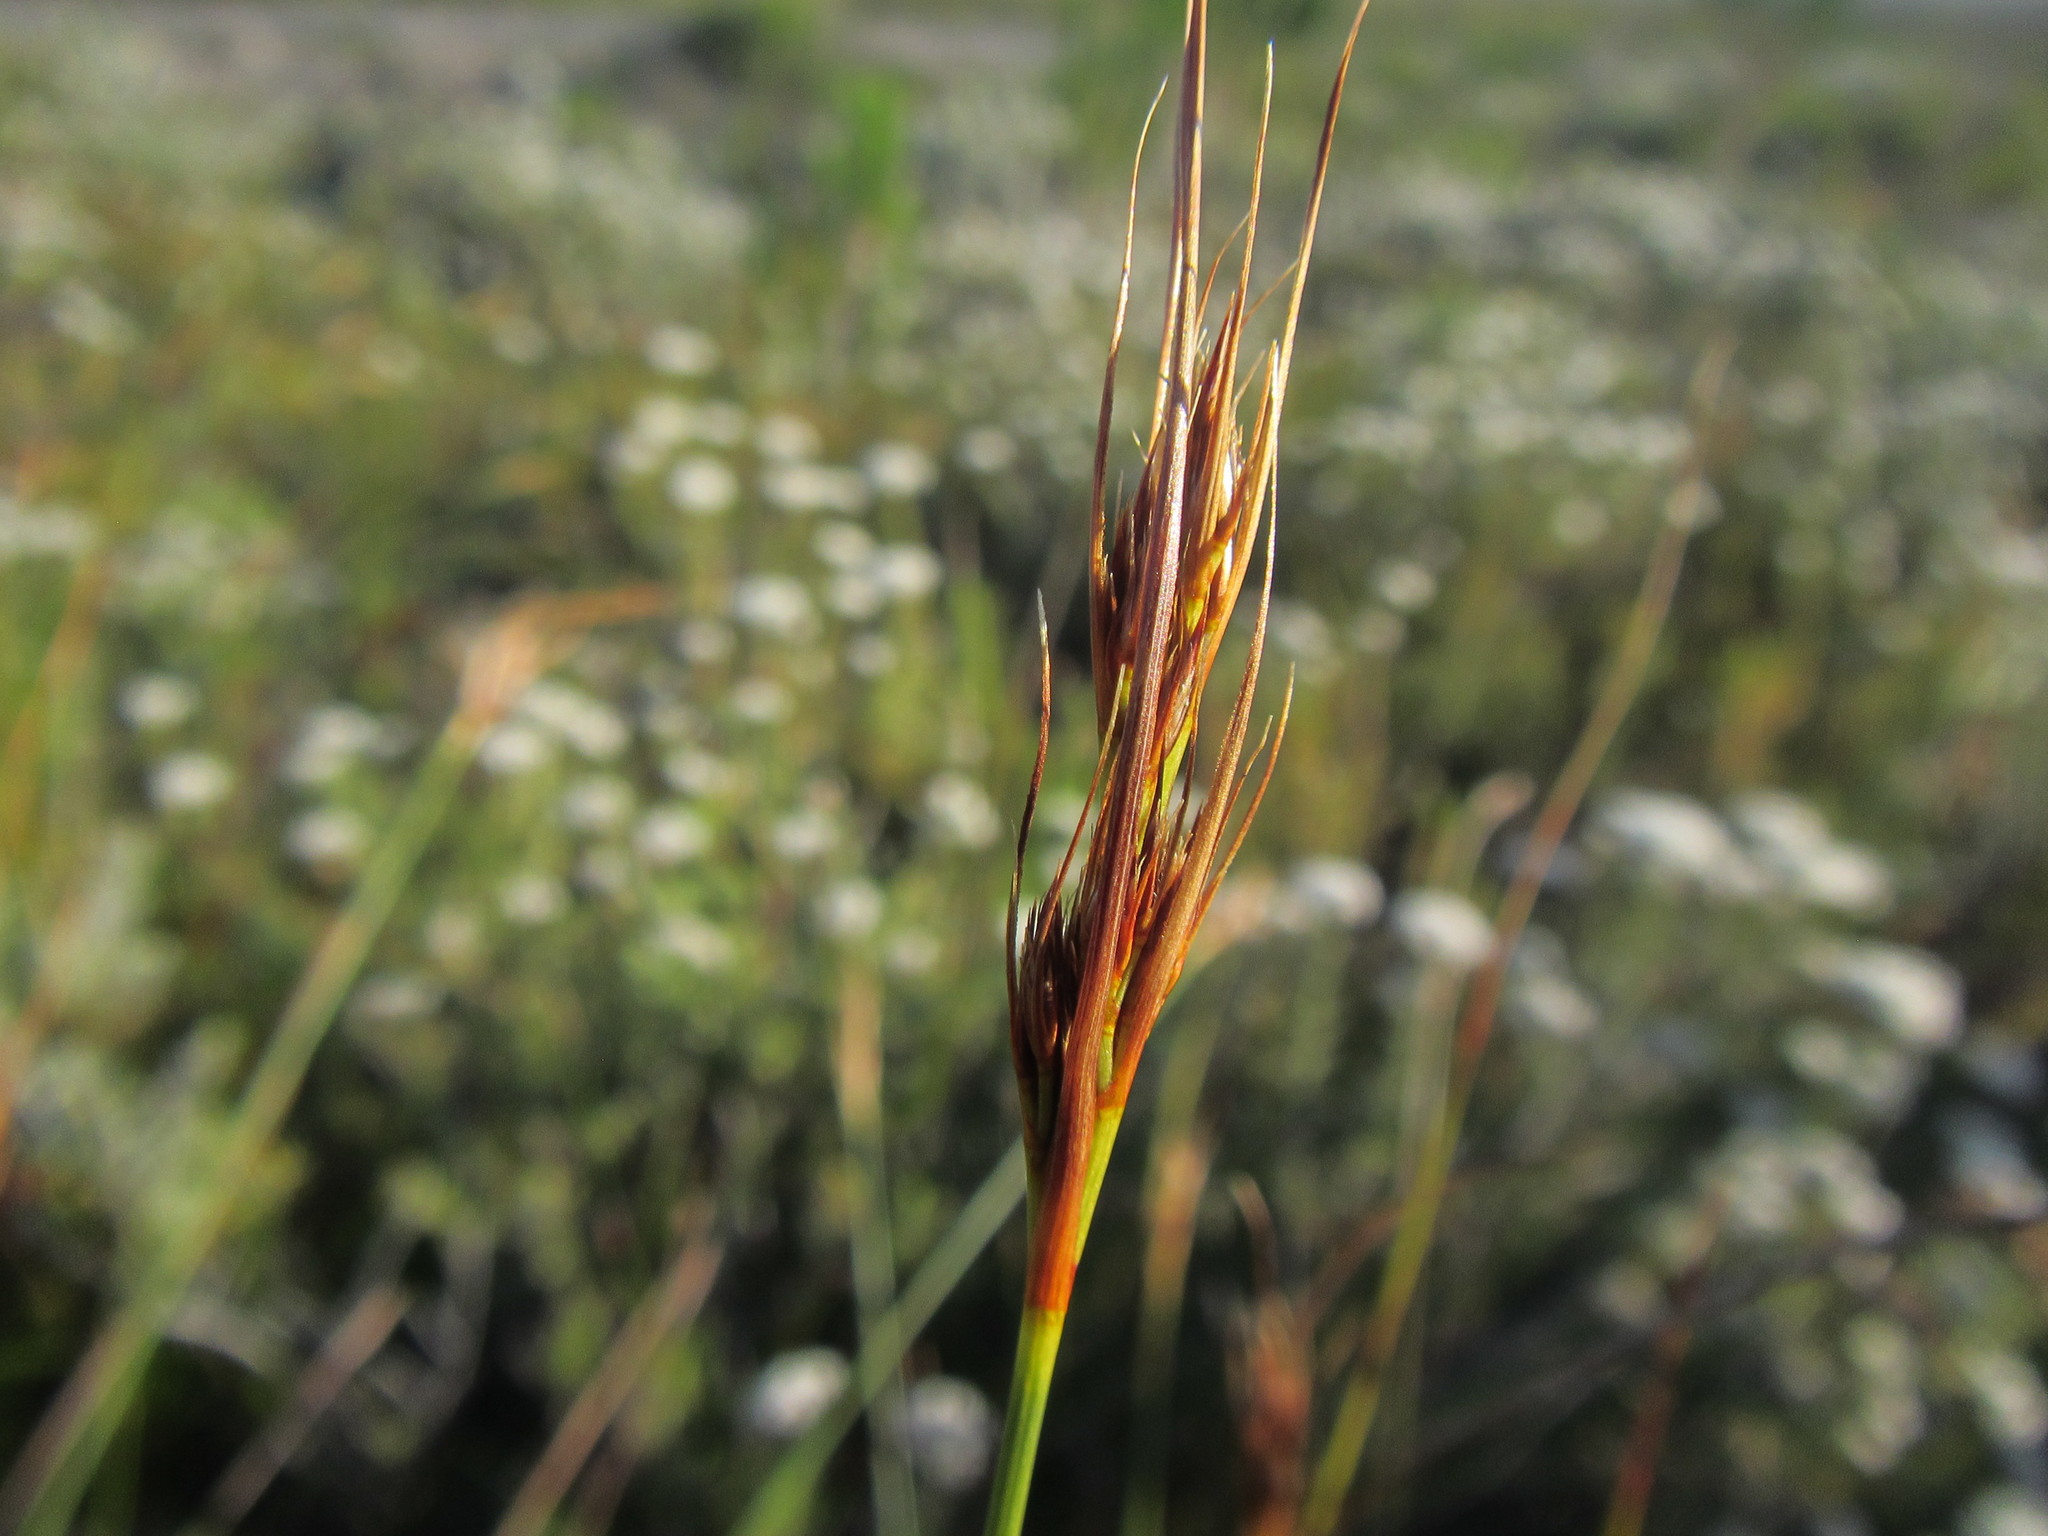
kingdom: Plantae
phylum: Tracheophyta
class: Liliopsida
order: Poales
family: Cyperaceae
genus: Schoenus
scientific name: Schoenus compactus
